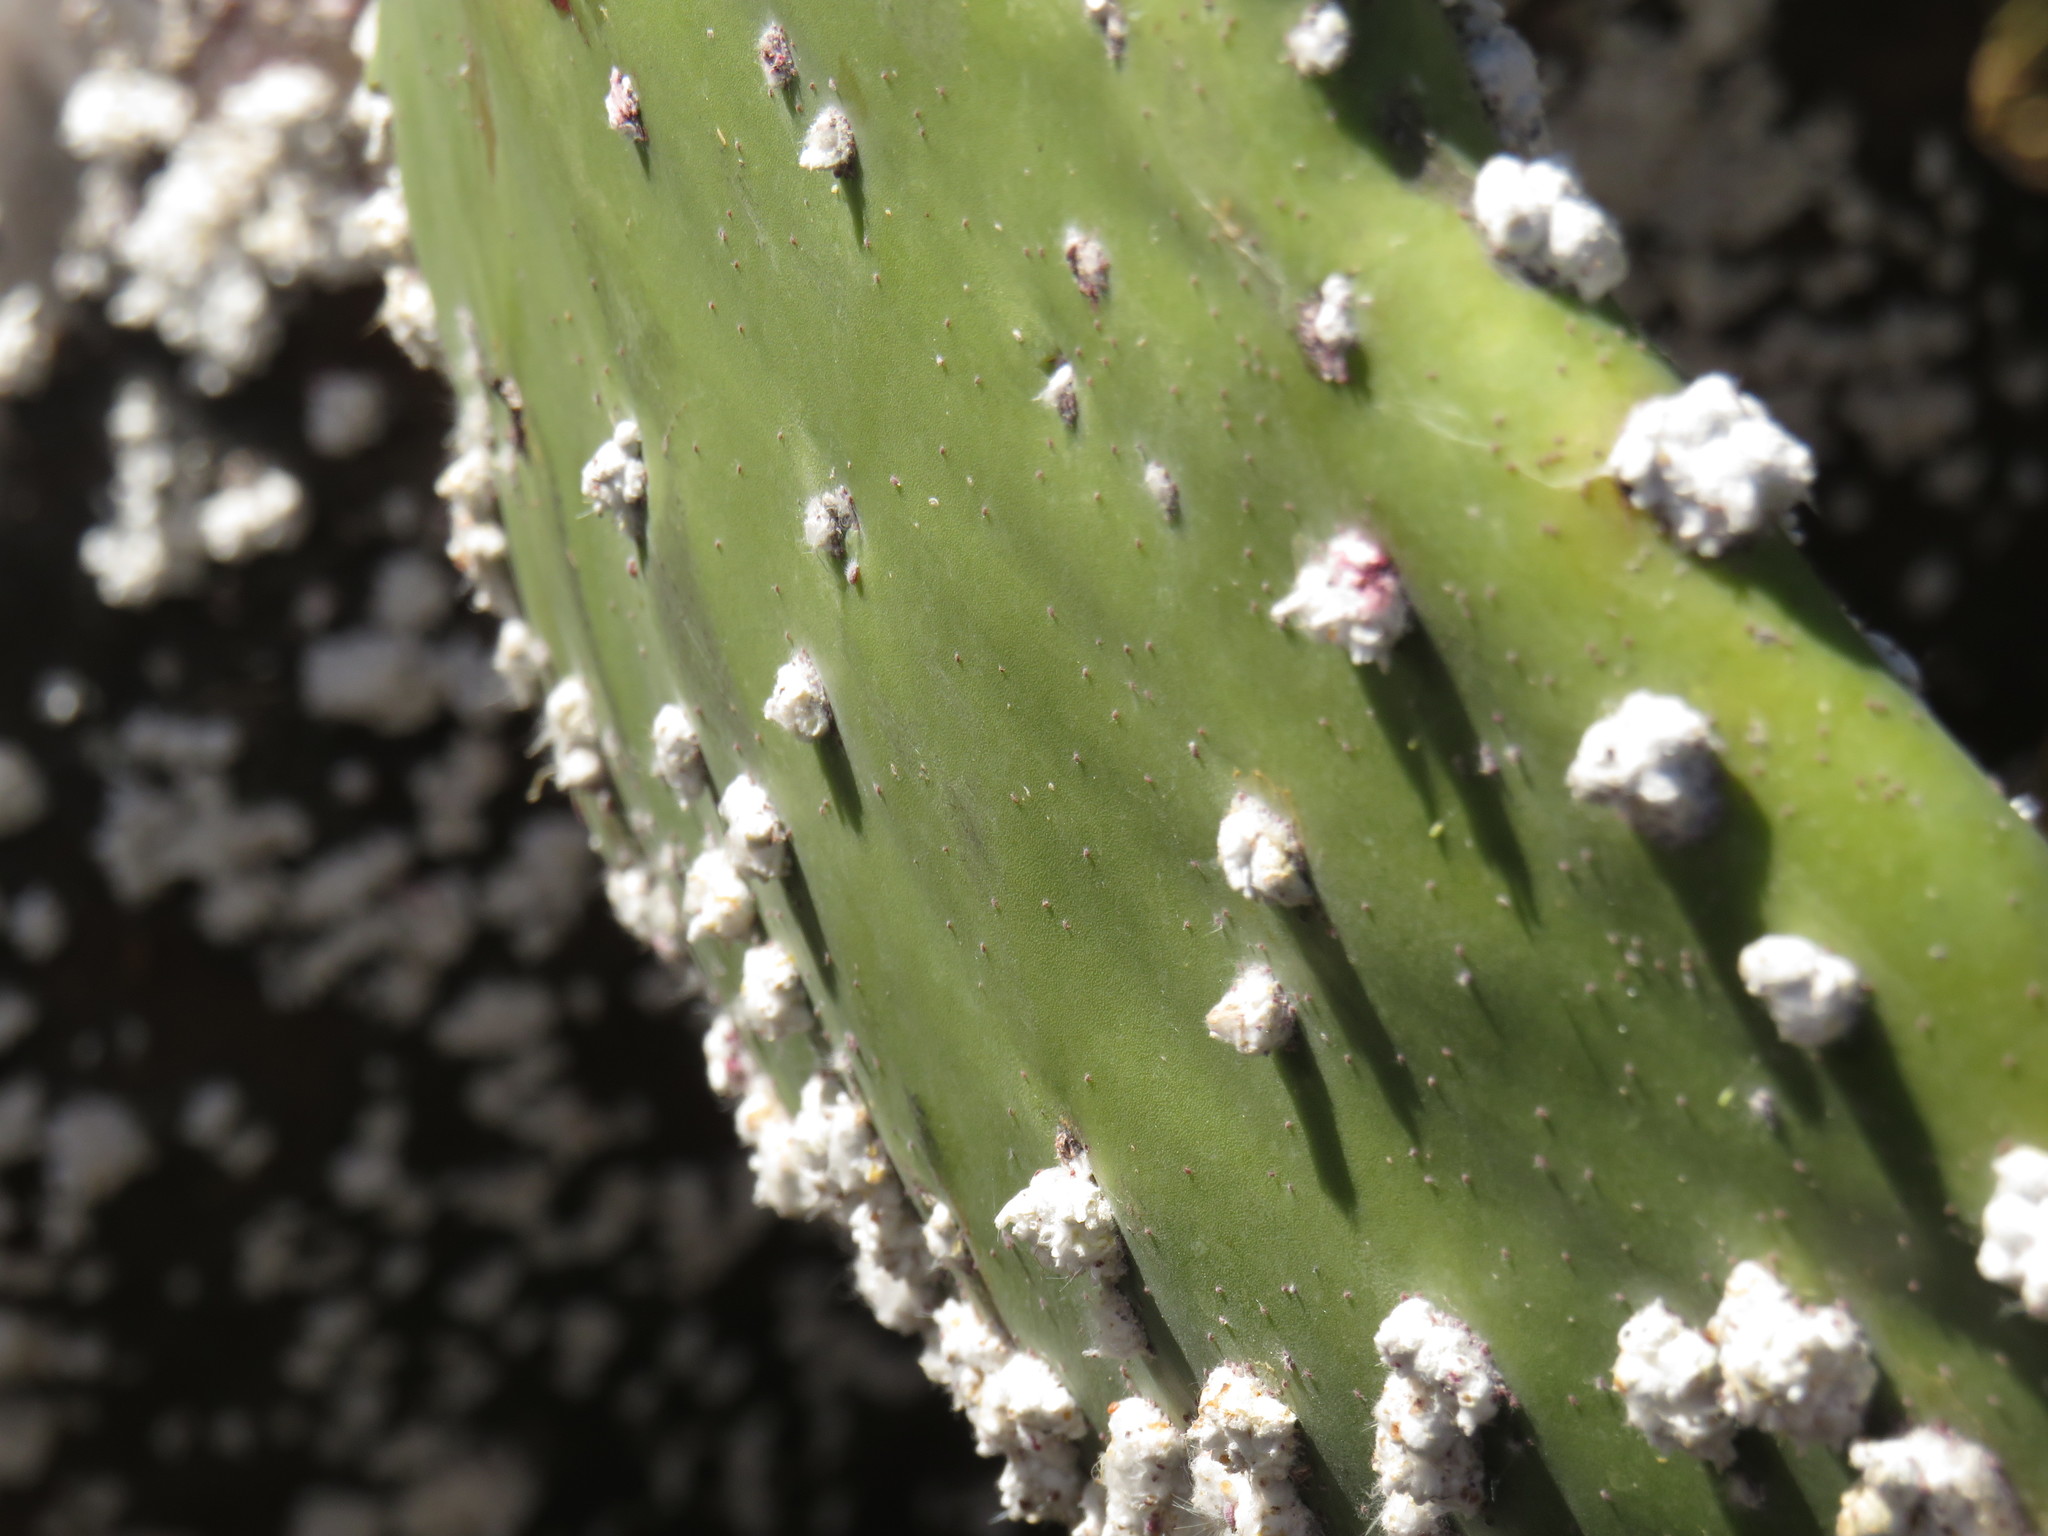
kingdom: Animalia
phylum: Arthropoda
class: Insecta
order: Hemiptera
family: Dactylopiidae
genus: Dactylopius
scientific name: Dactylopius opuntiae
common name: Opuntia cochineal scale
